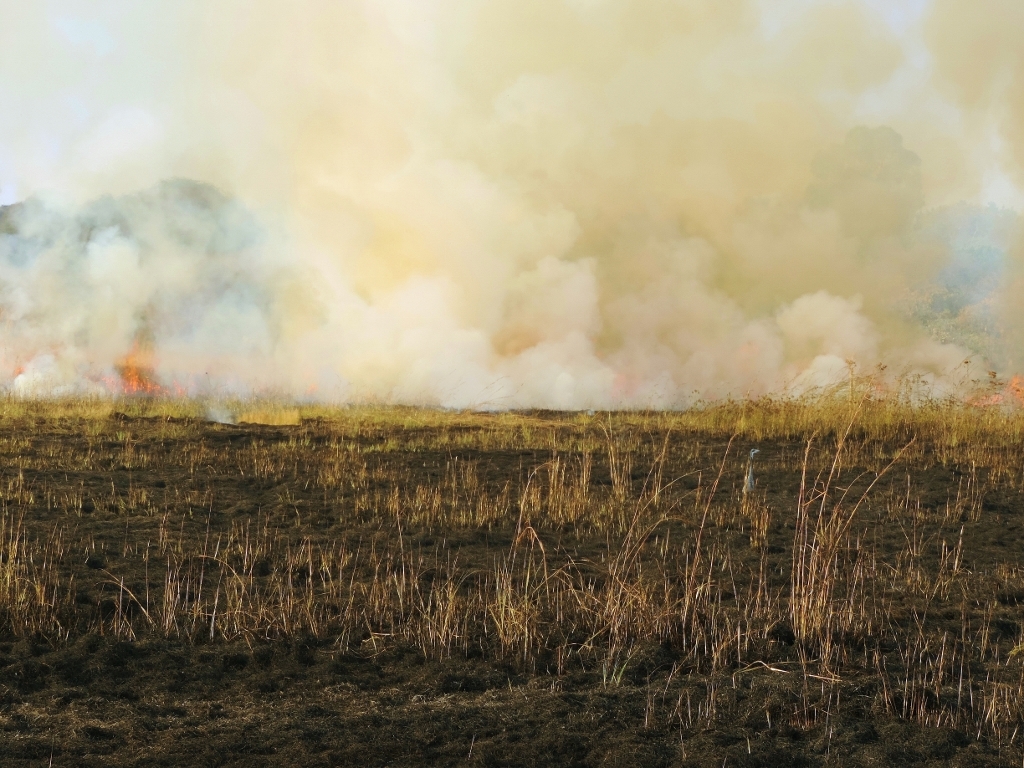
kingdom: Animalia
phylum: Chordata
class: Aves
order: Accipitriformes
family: Accipitridae
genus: Lophaetus
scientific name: Lophaetus occipitalis
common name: Long-crested eagle
